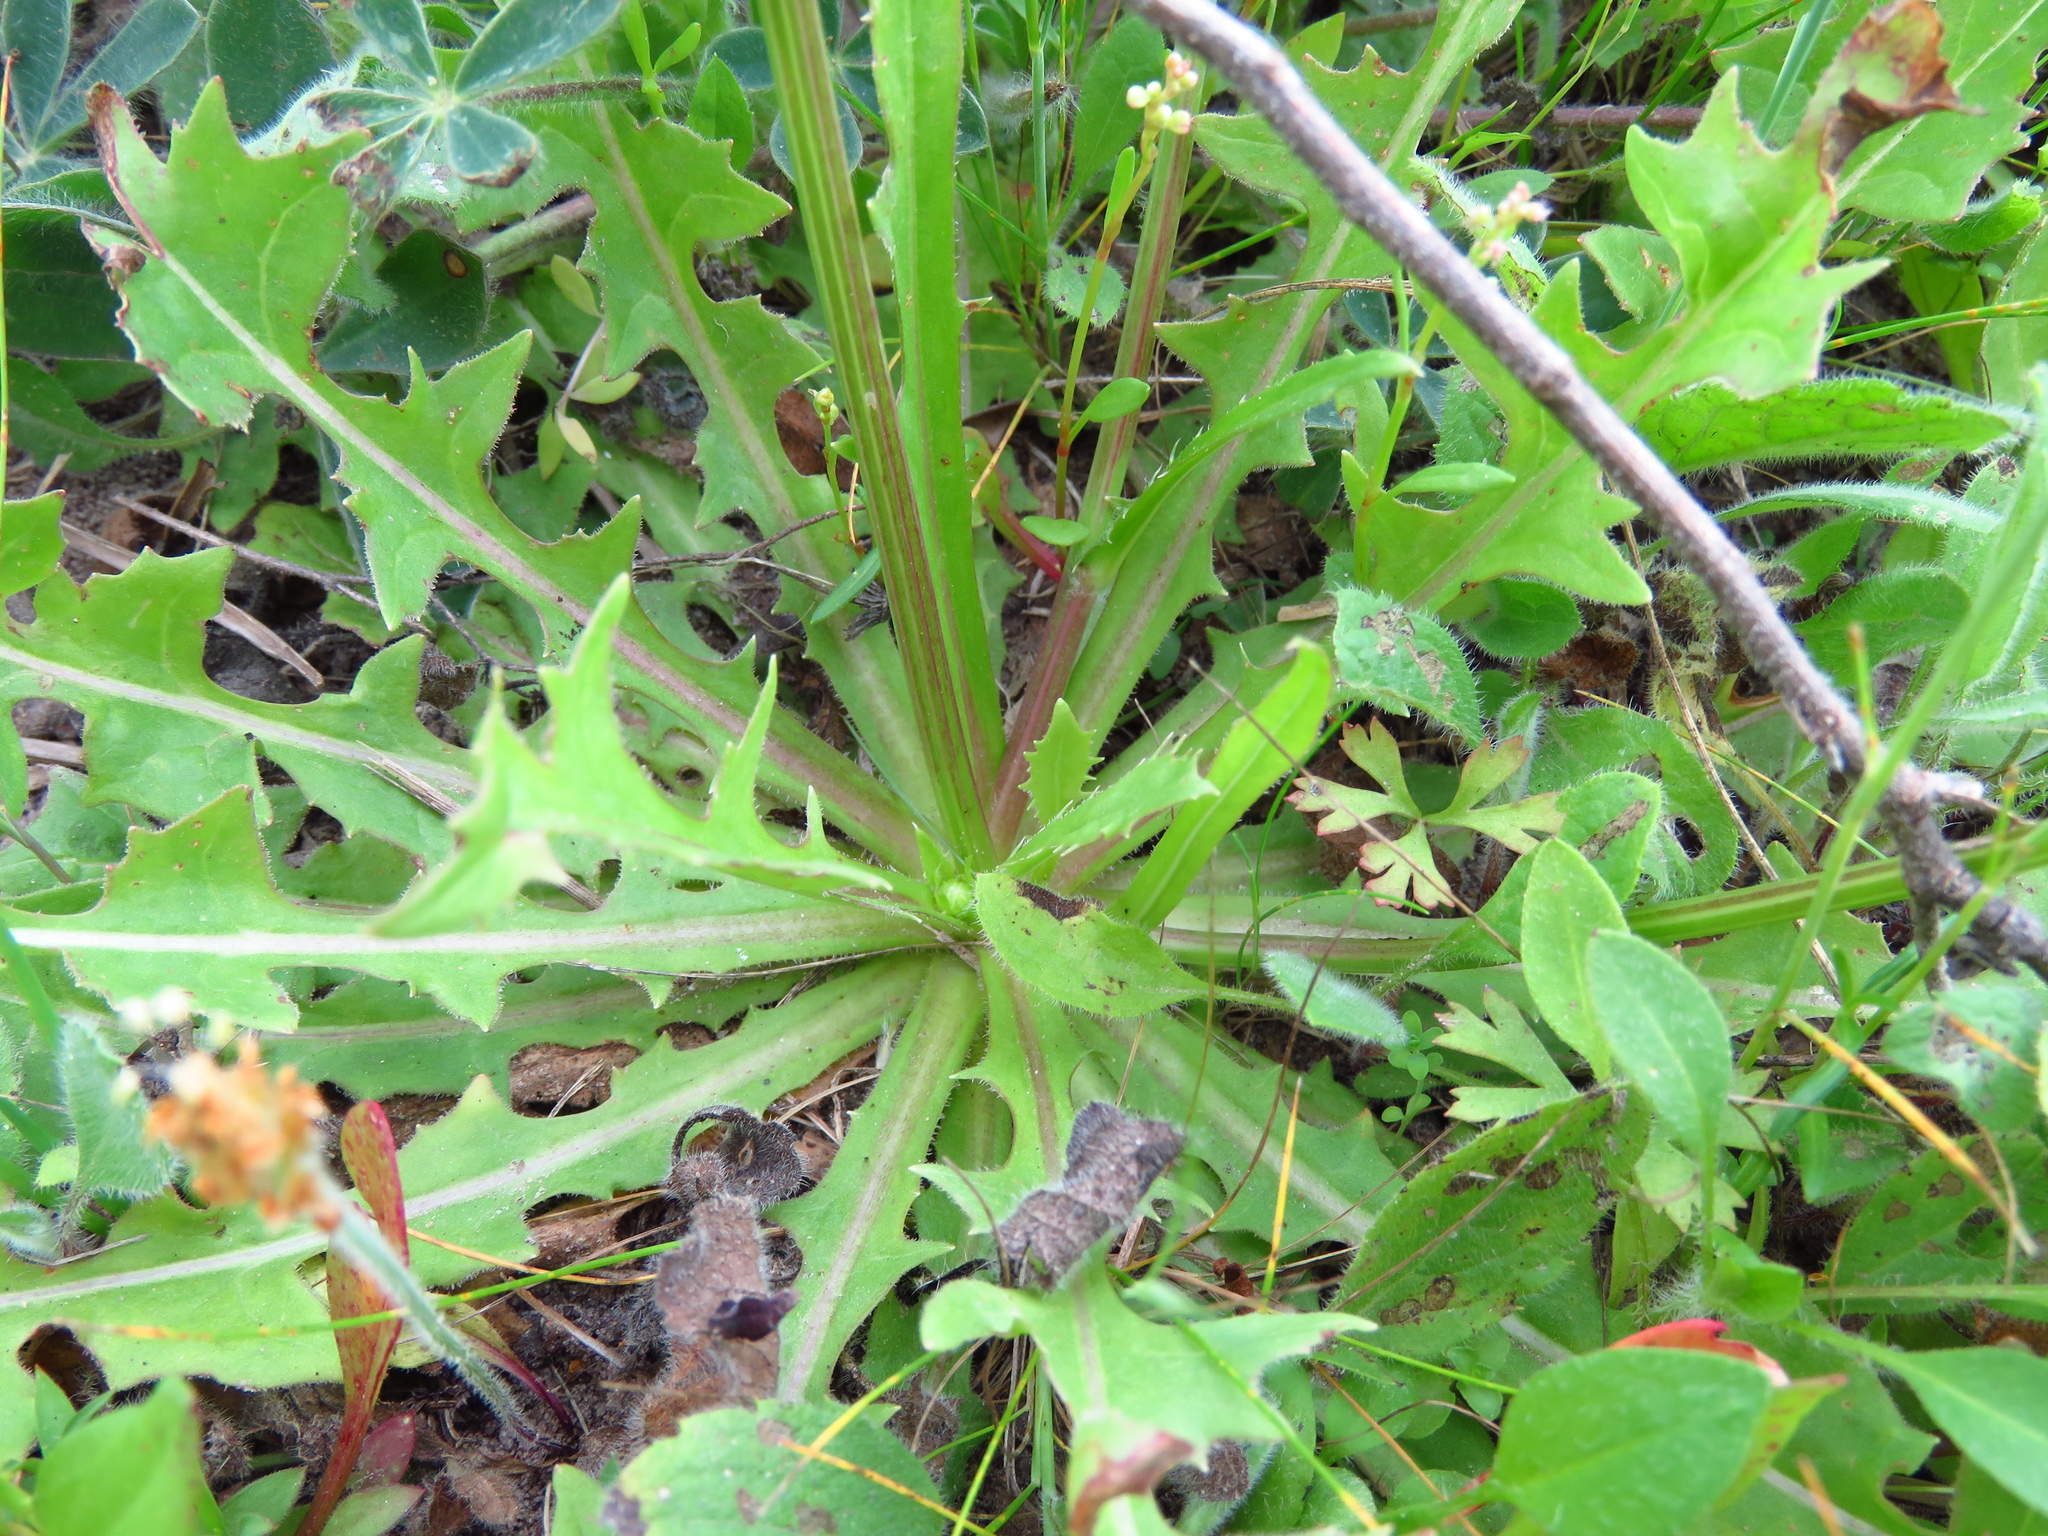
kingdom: Plantae
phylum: Tracheophyta
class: Magnoliopsida
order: Asterales
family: Asteraceae
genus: Pyrrhopappus
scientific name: Pyrrhopappus pauciflorus
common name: Texas false dandelion
